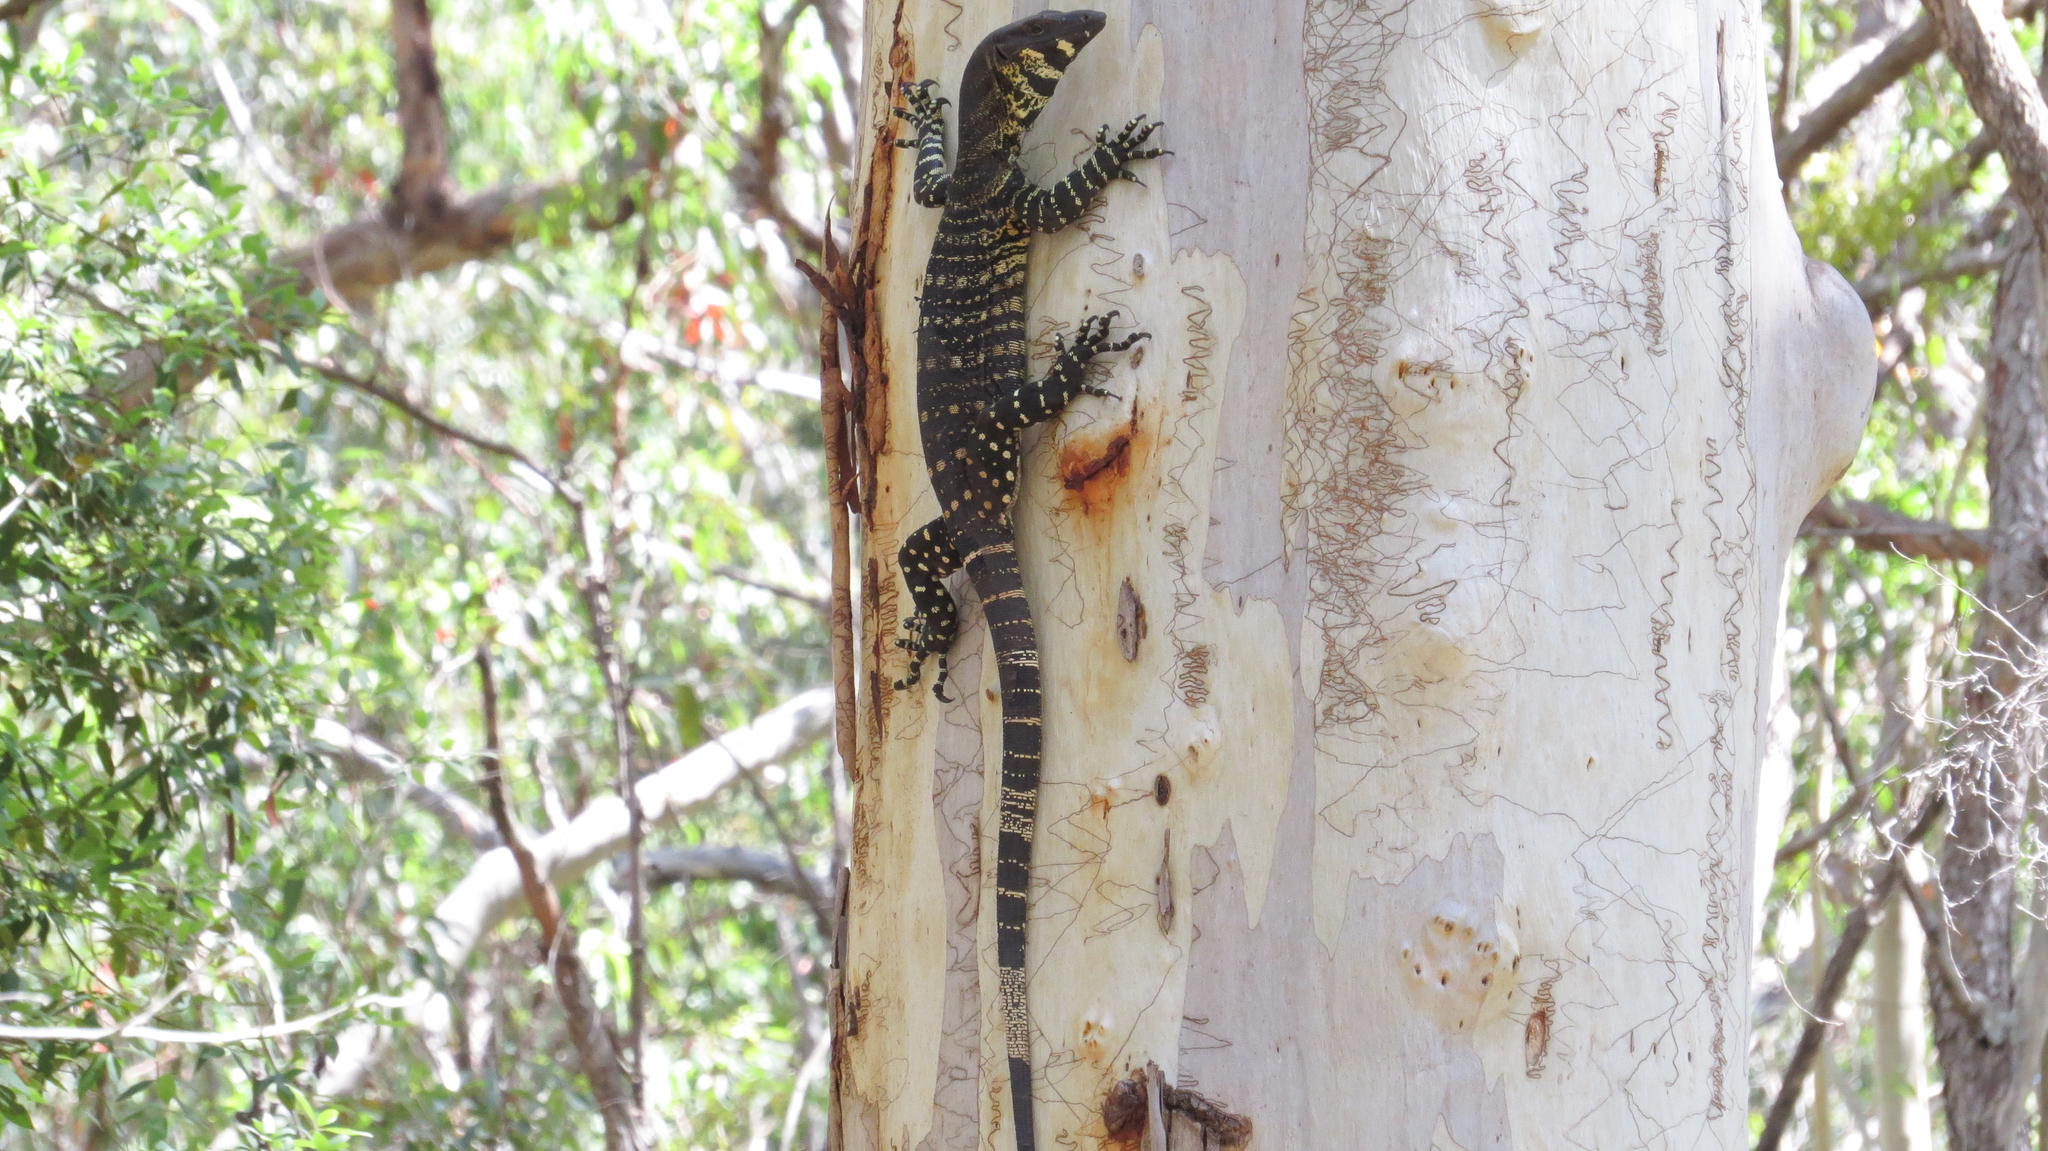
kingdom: Animalia
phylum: Chordata
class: Squamata
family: Varanidae
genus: Varanus
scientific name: Varanus varius
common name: Lace monitor
